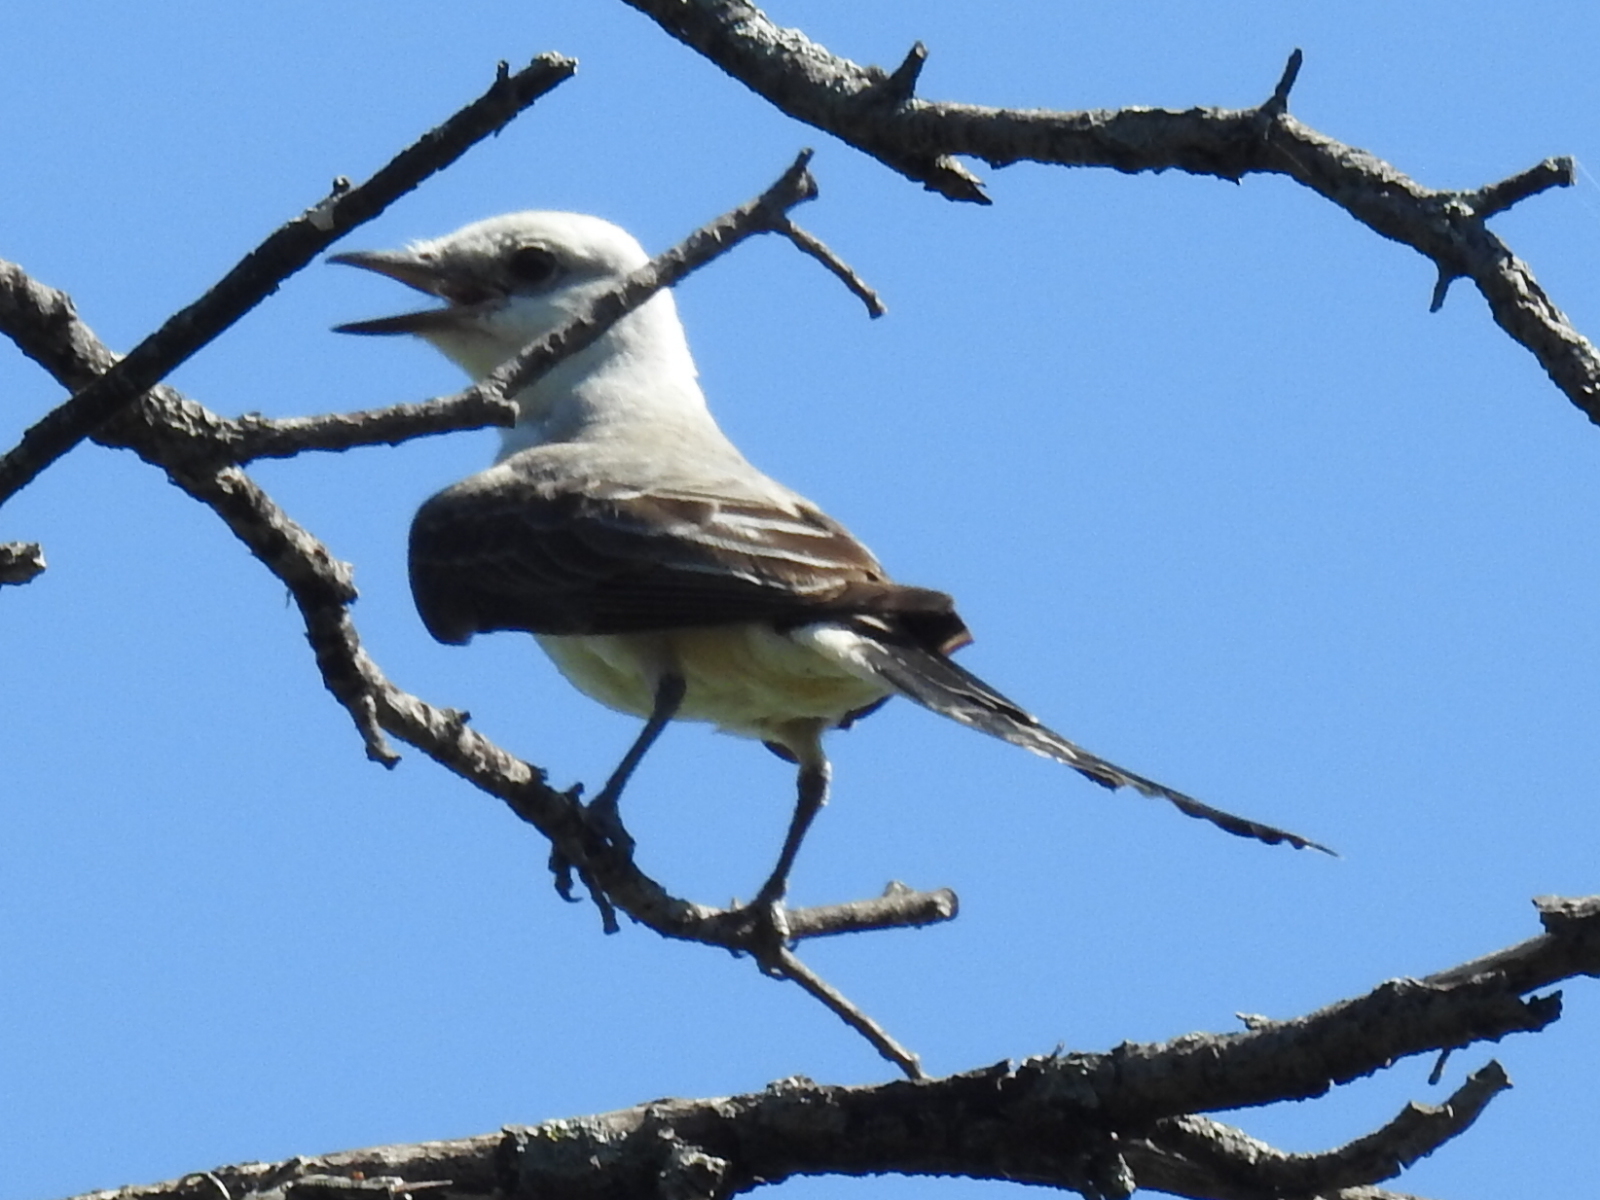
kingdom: Animalia
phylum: Chordata
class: Aves
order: Passeriformes
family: Tyrannidae
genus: Tyrannus
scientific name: Tyrannus forficatus
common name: Scissor-tailed flycatcher
